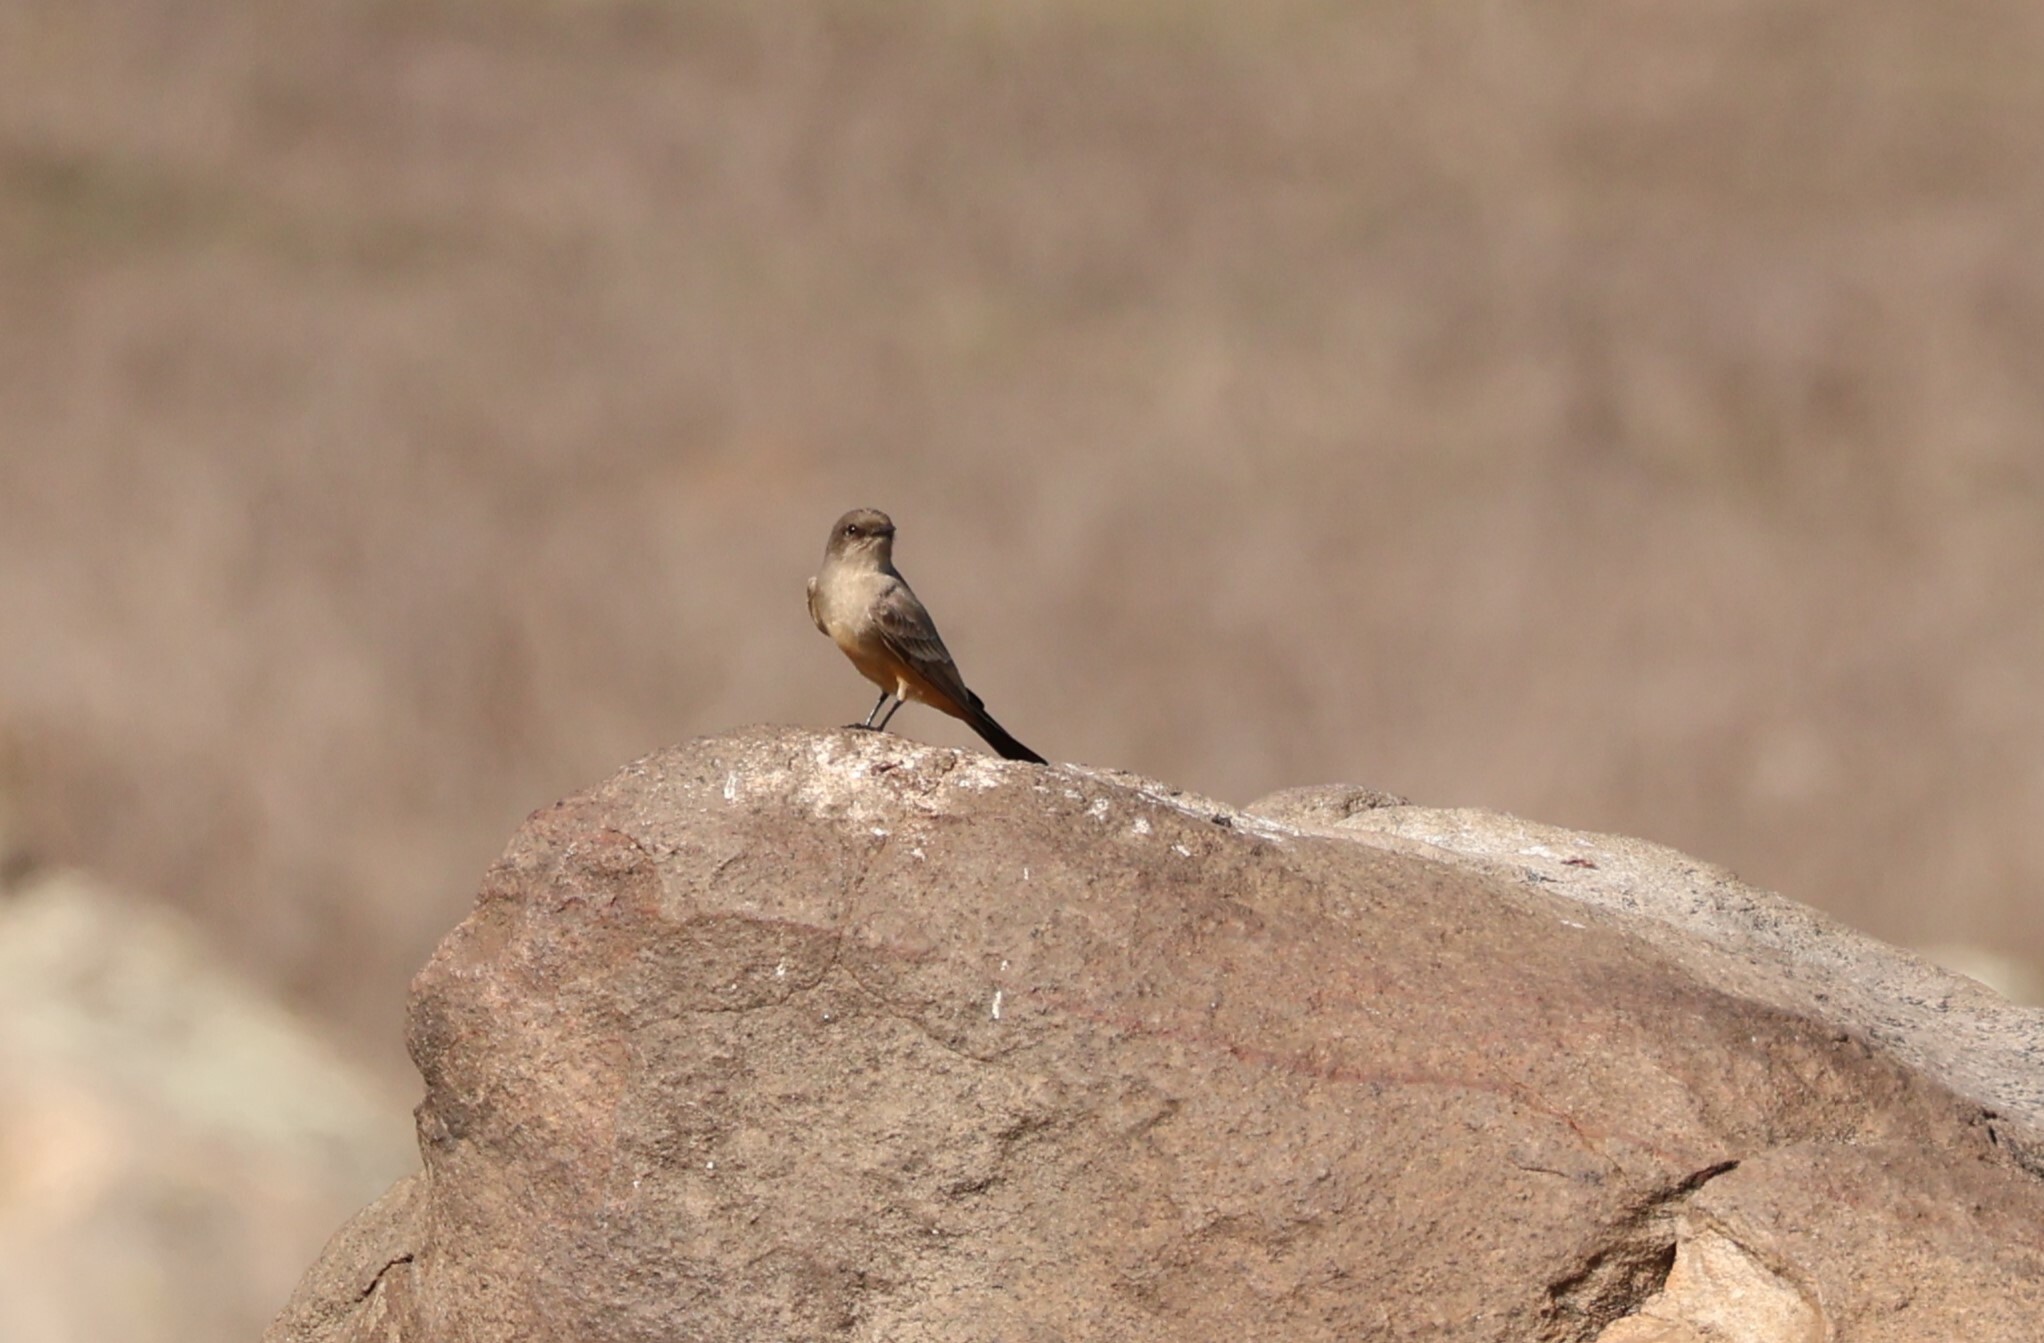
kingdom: Animalia
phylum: Chordata
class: Aves
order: Passeriformes
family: Tyrannidae
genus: Sayornis
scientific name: Sayornis saya
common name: Say's phoebe
